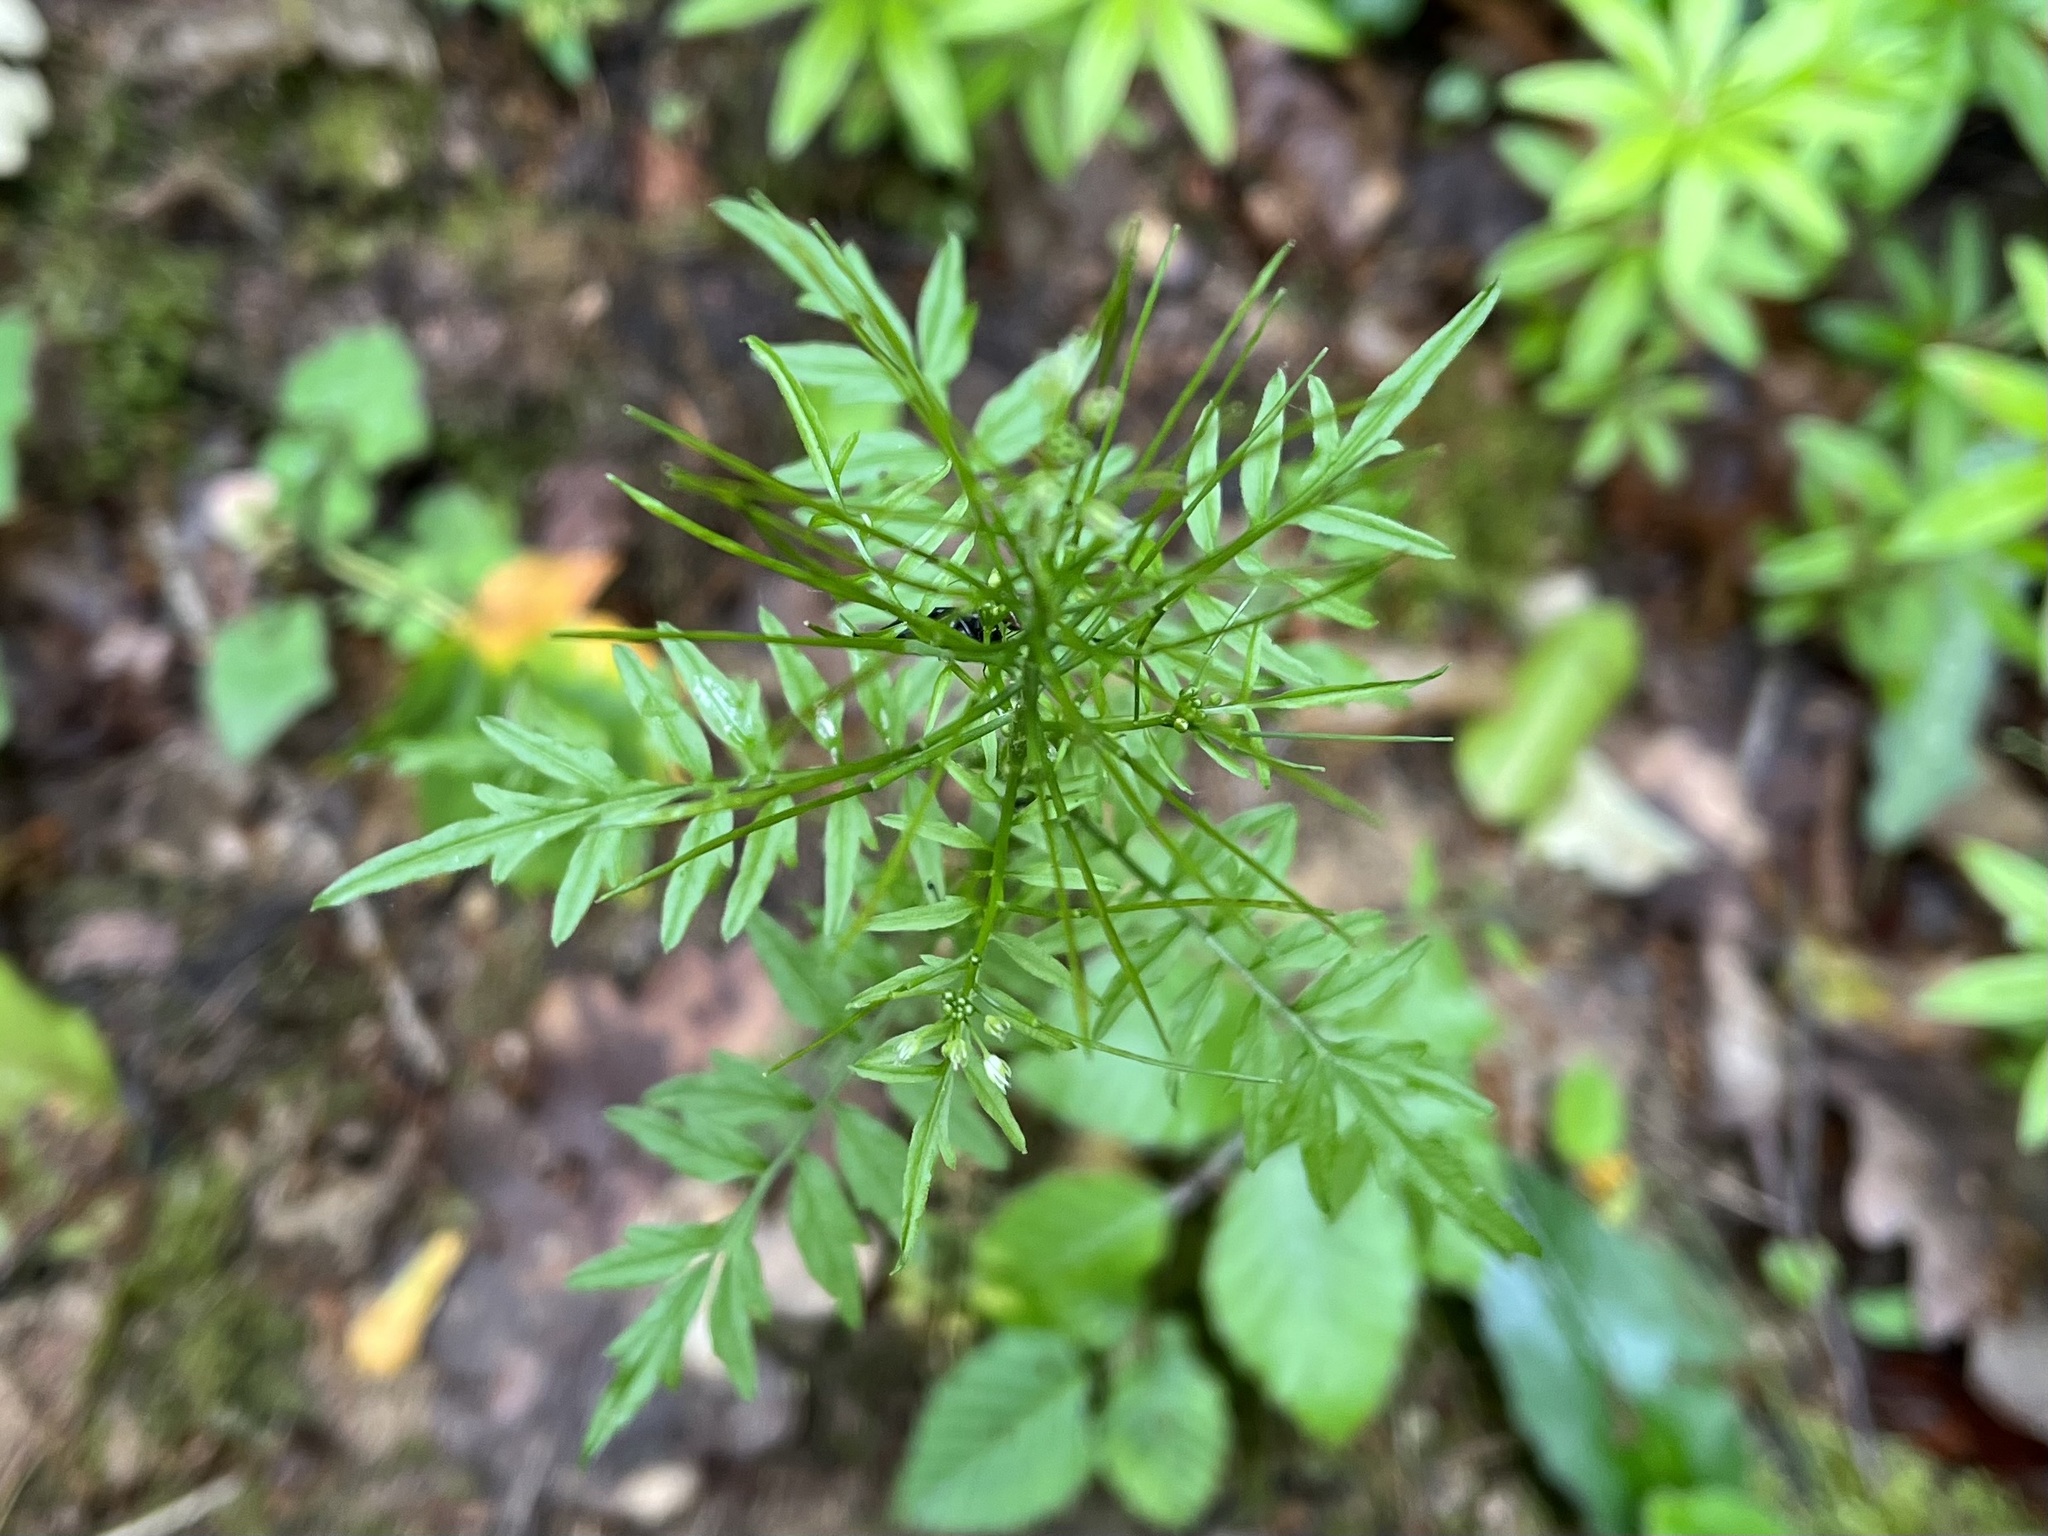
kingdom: Plantae
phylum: Tracheophyta
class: Magnoliopsida
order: Brassicales
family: Brassicaceae
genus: Cardamine
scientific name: Cardamine impatiens
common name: Narrow-leaved bitter-cress
